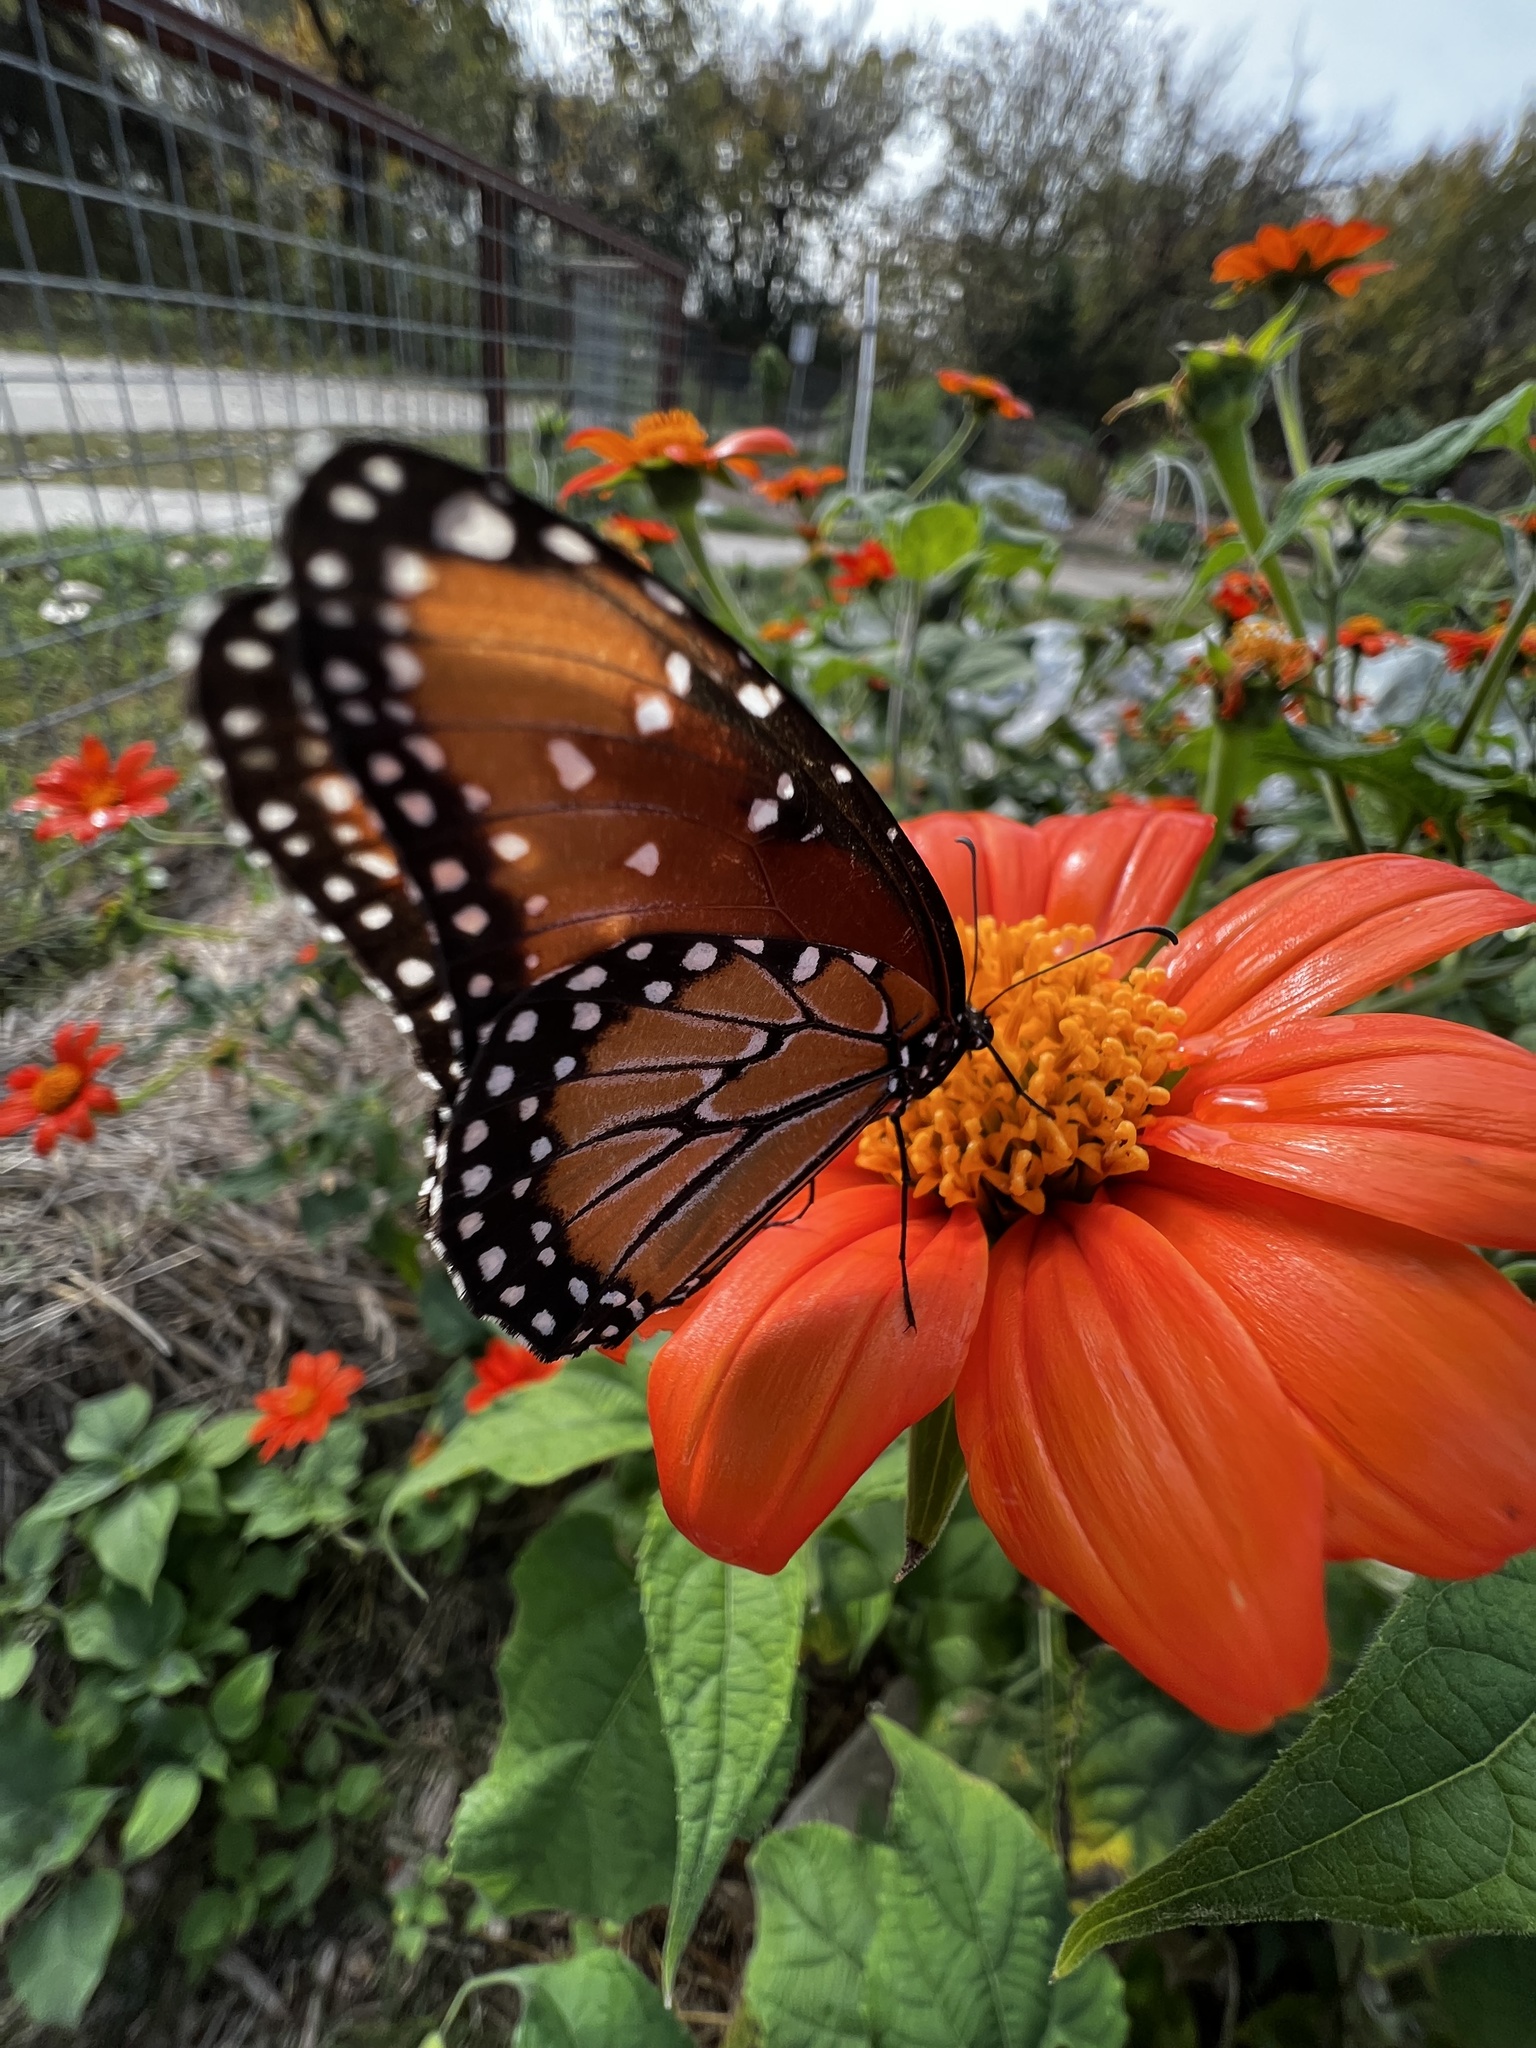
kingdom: Animalia
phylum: Arthropoda
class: Insecta
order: Lepidoptera
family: Nymphalidae
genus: Danaus
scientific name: Danaus gilippus
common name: Queen
